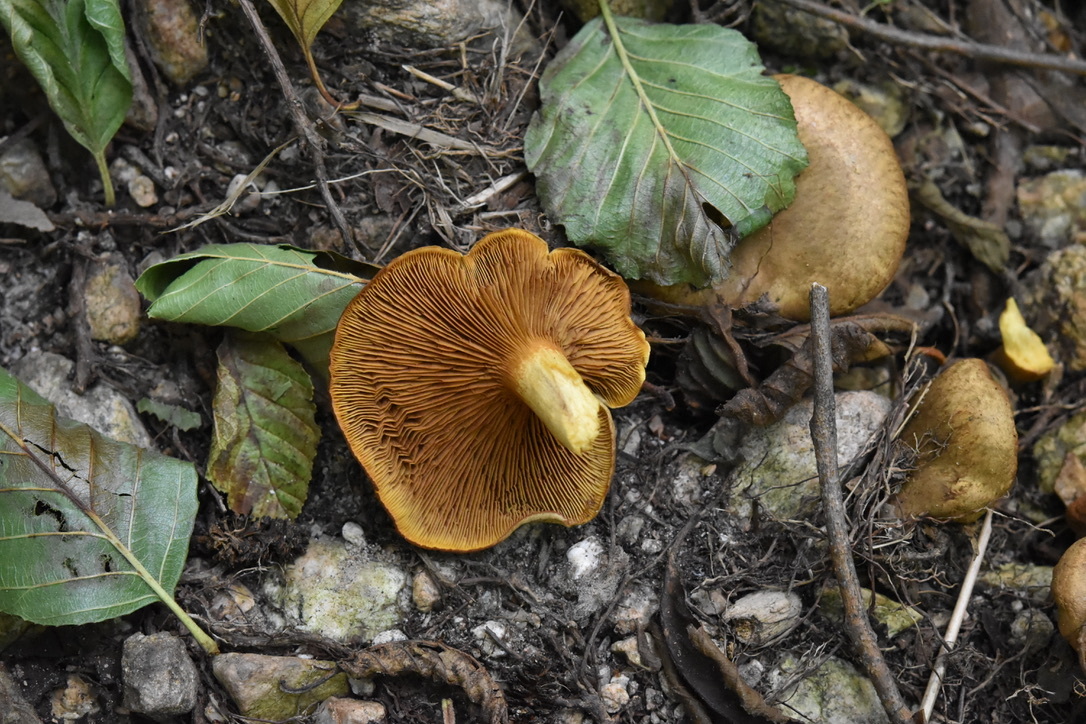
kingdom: Fungi
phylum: Basidiomycota
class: Agaricomycetes
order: Agaricales
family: Omphalotaceae
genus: Omphalotus
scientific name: Omphalotus olivascens
